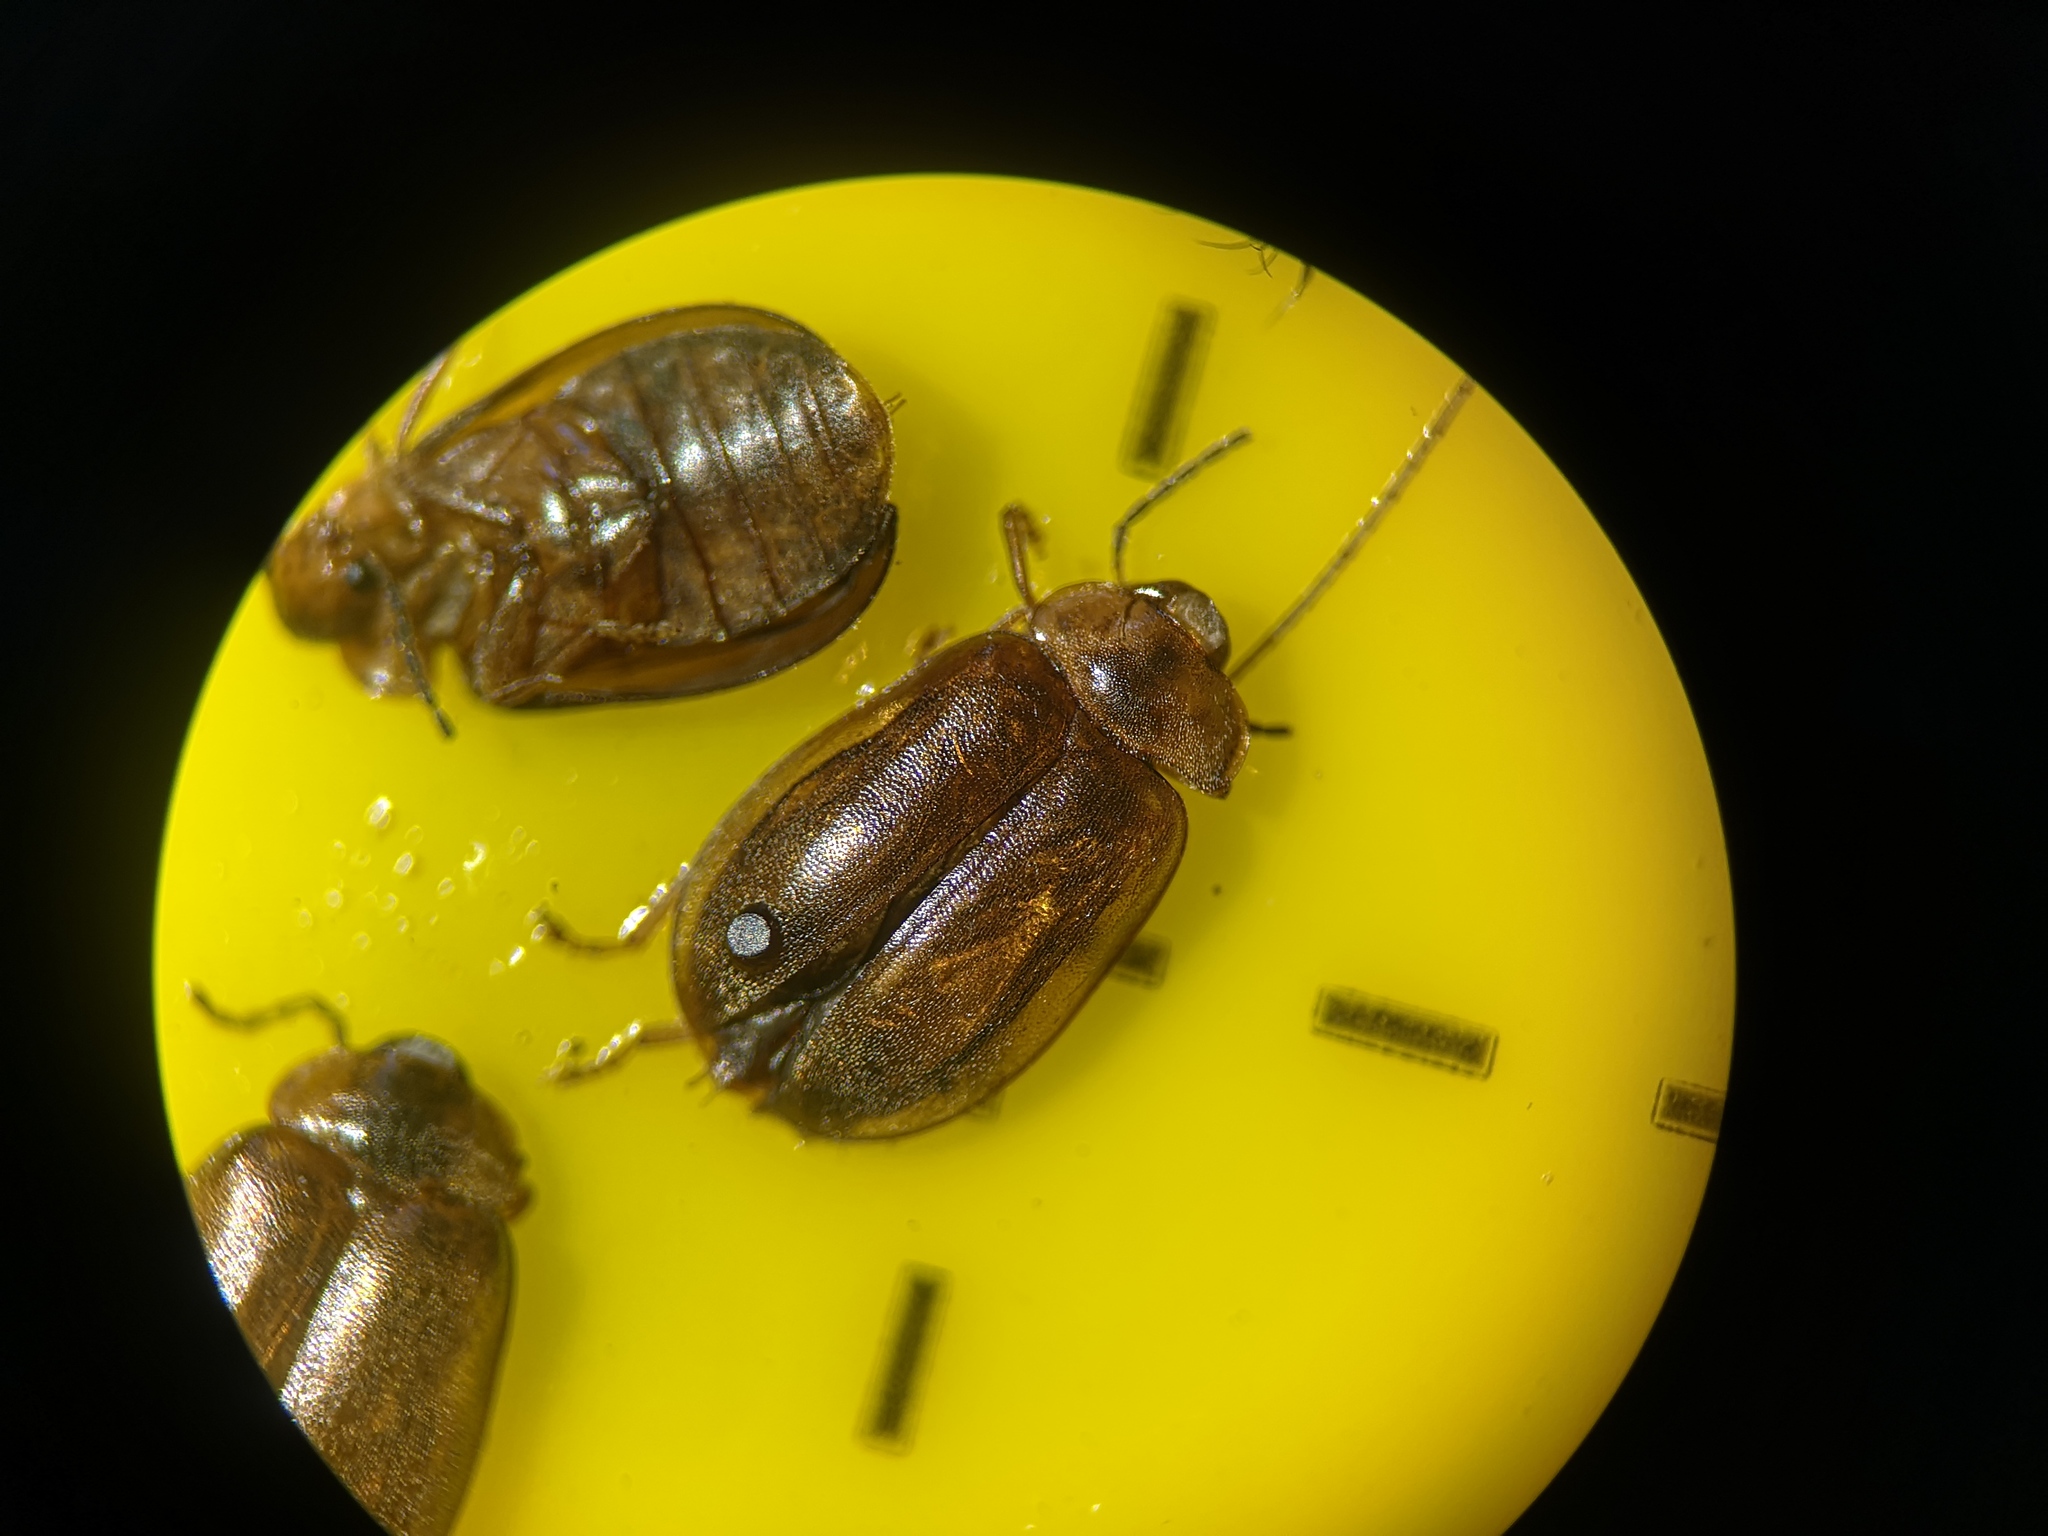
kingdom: Animalia
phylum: Arthropoda
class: Insecta
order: Coleoptera
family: Scirtidae
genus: Microcara
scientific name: Microcara testacea
